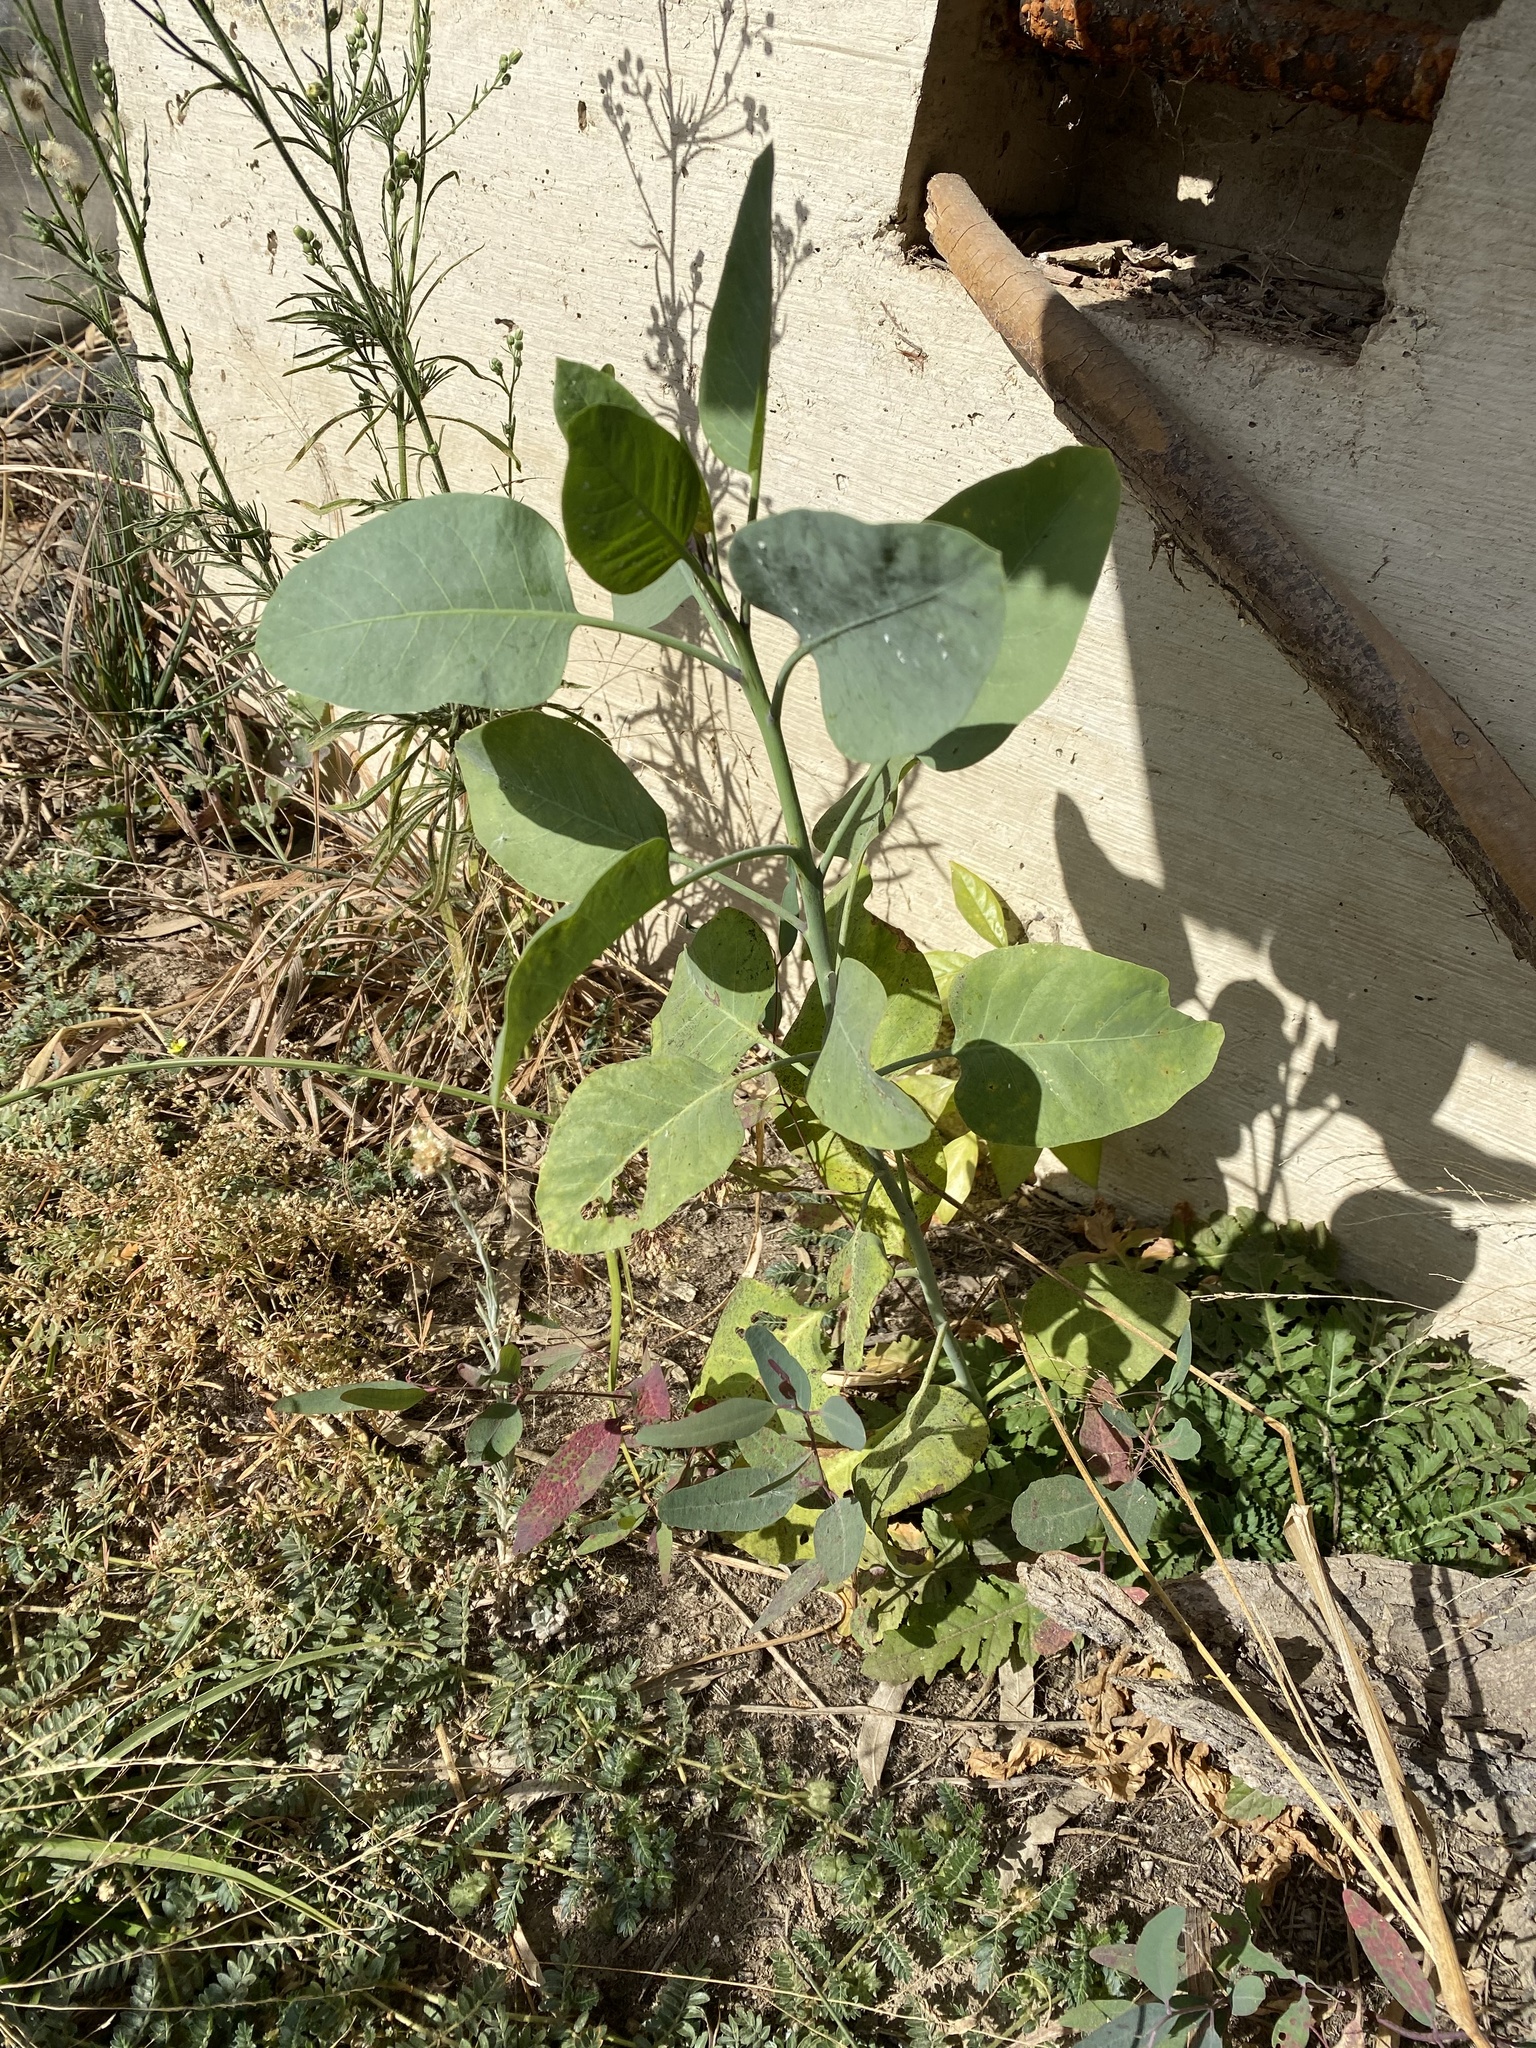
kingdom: Plantae
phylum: Tracheophyta
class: Magnoliopsida
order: Solanales
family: Solanaceae
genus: Nicotiana
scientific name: Nicotiana glauca
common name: Tree tobacco
